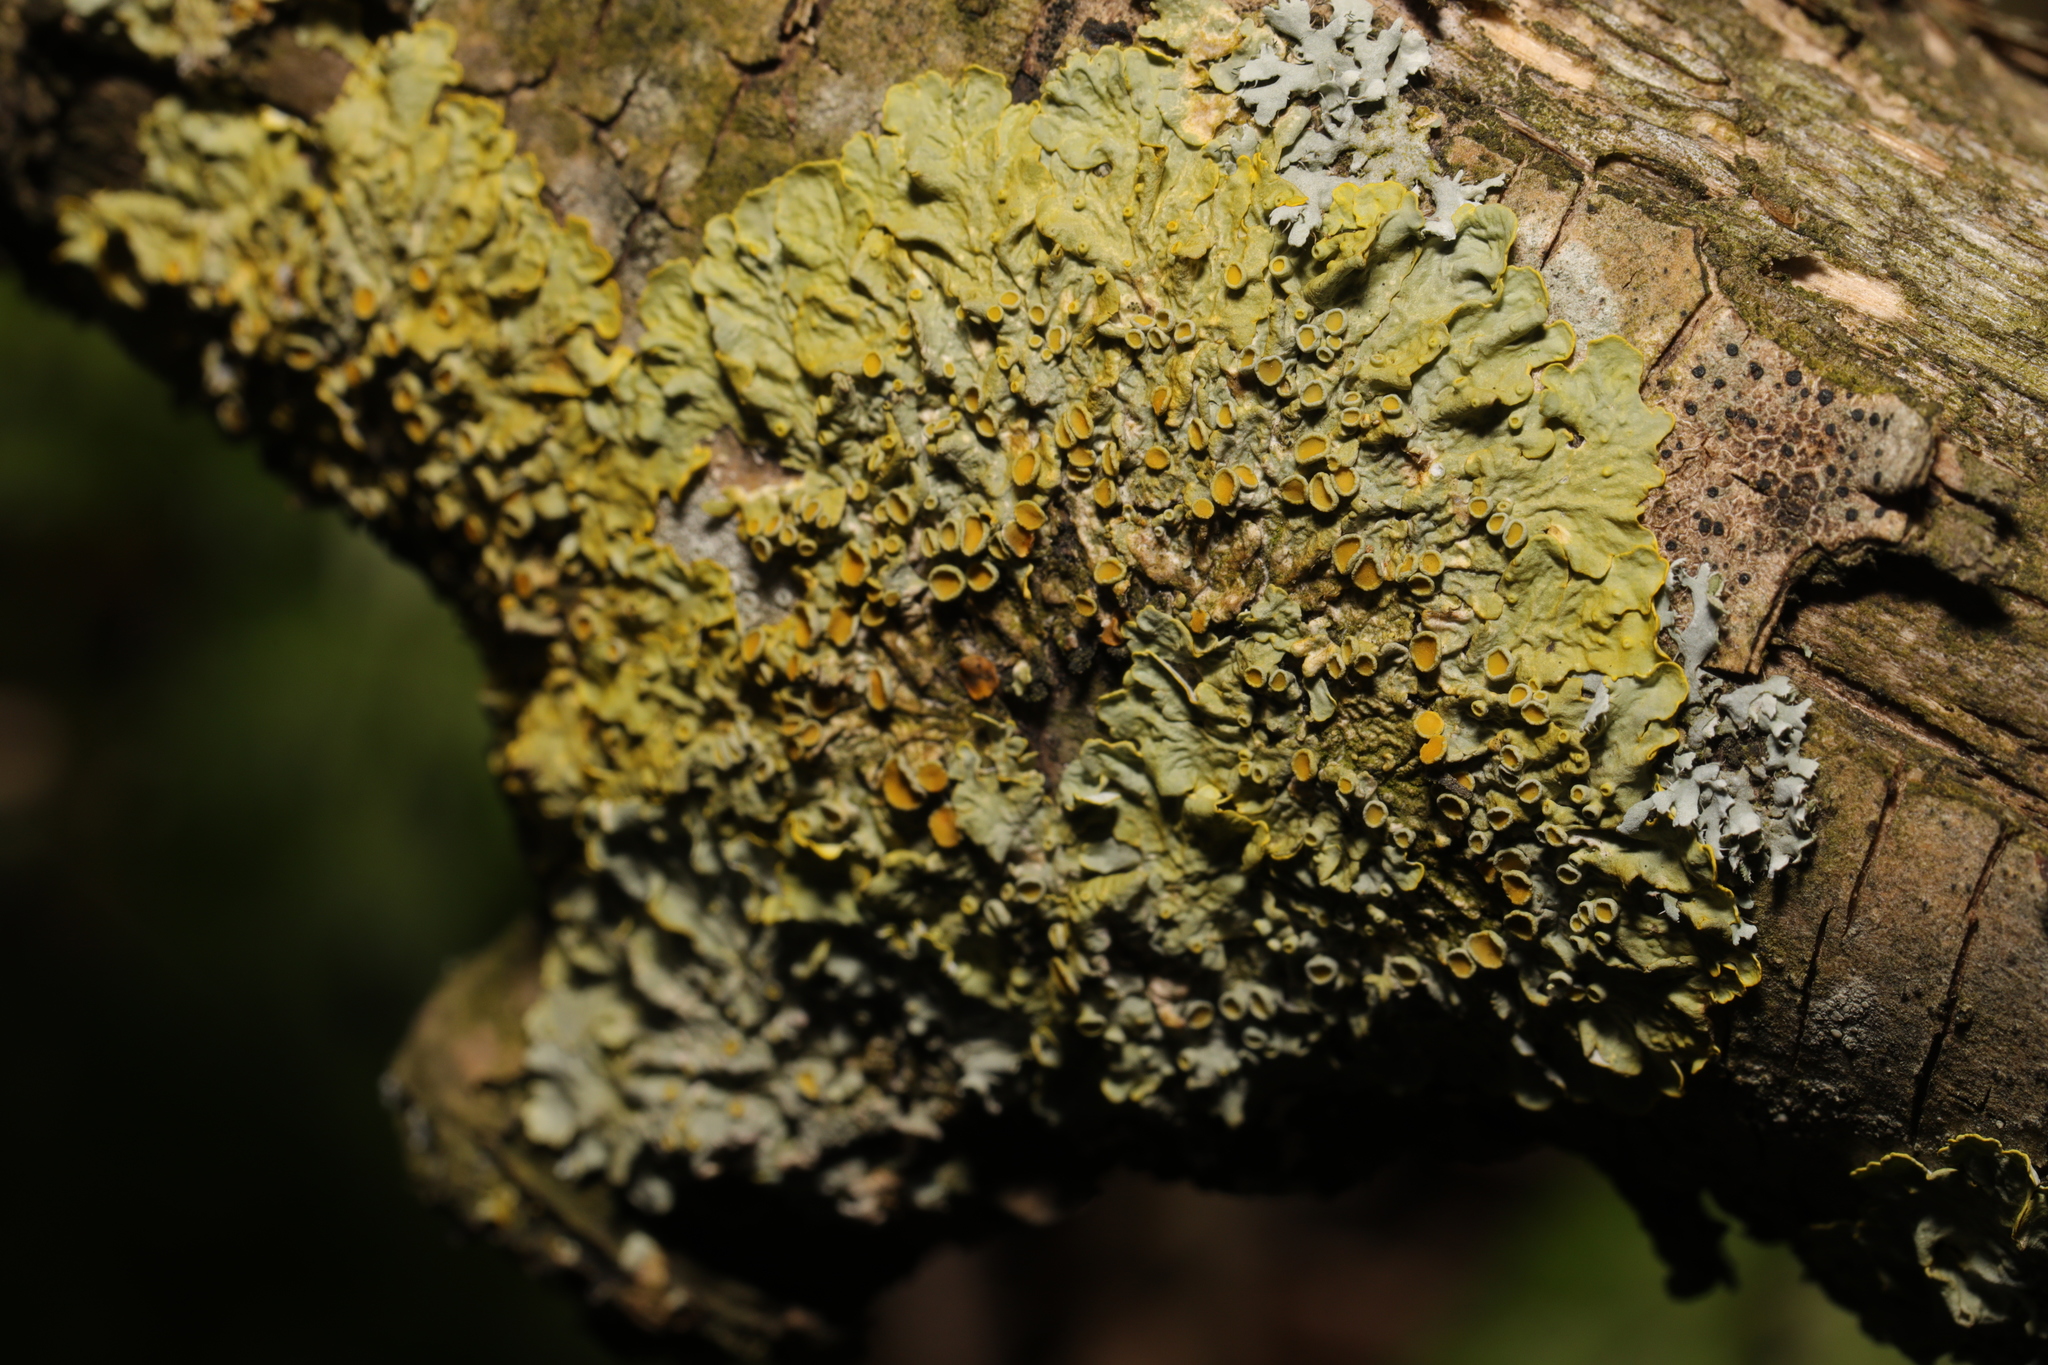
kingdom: Fungi
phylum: Ascomycota
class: Lecanoromycetes
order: Teloschistales
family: Teloschistaceae
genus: Xanthoria
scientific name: Xanthoria parietina
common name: Common orange lichen
